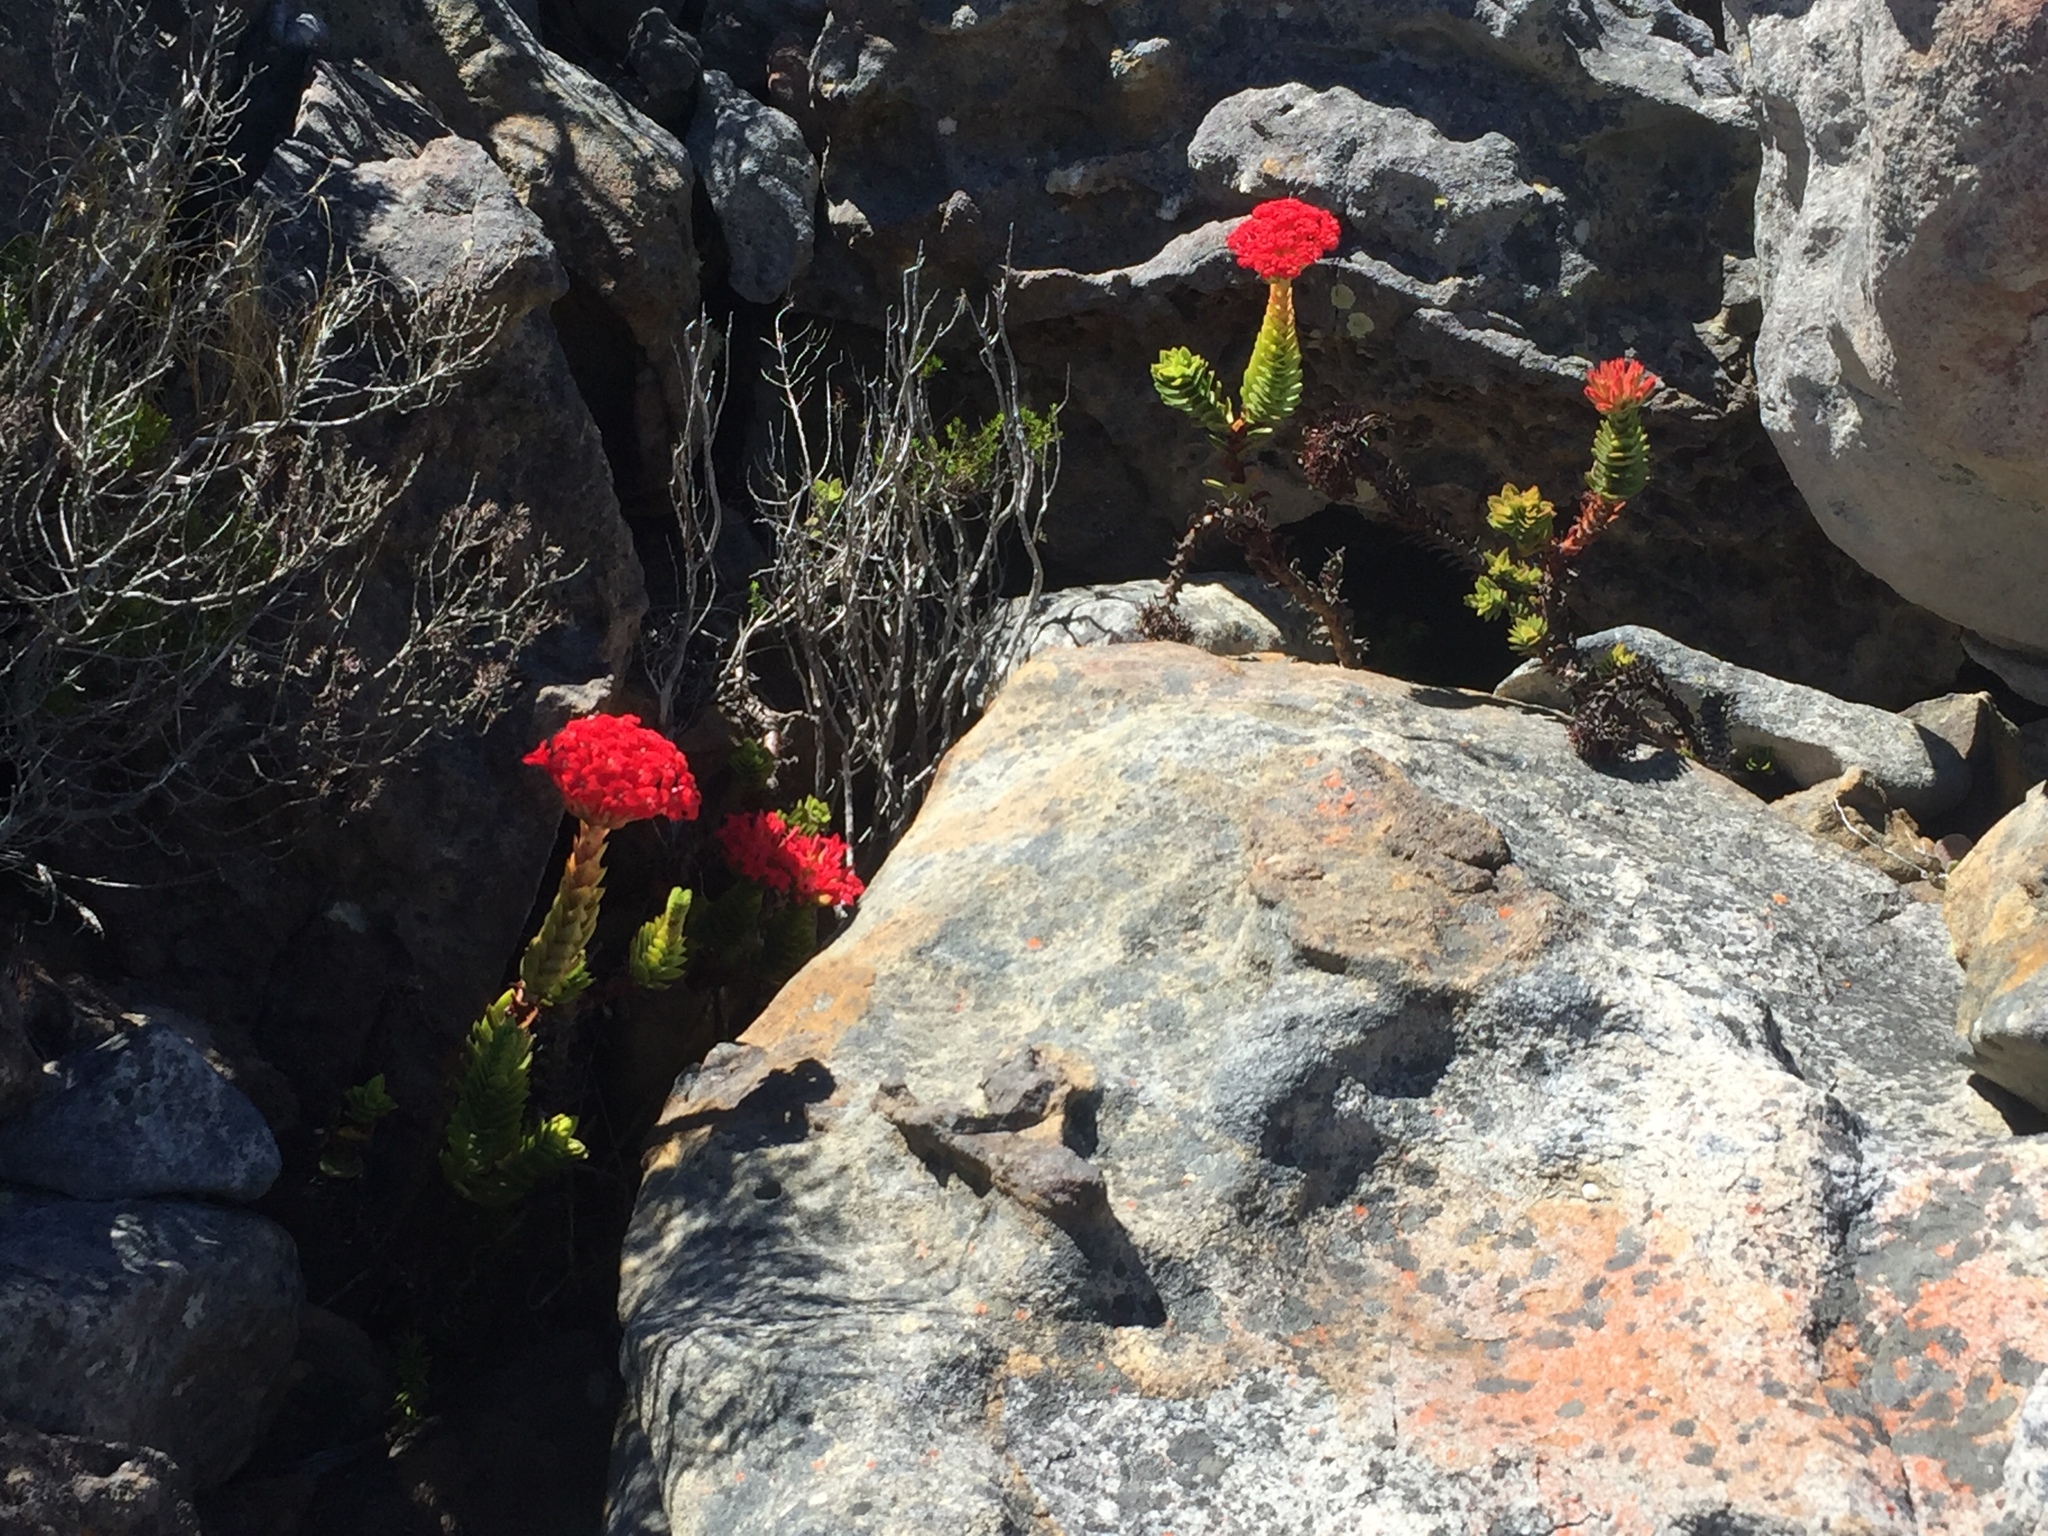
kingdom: Plantae
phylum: Tracheophyta
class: Magnoliopsida
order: Saxifragales
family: Crassulaceae
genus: Crassula
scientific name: Crassula coccinea
